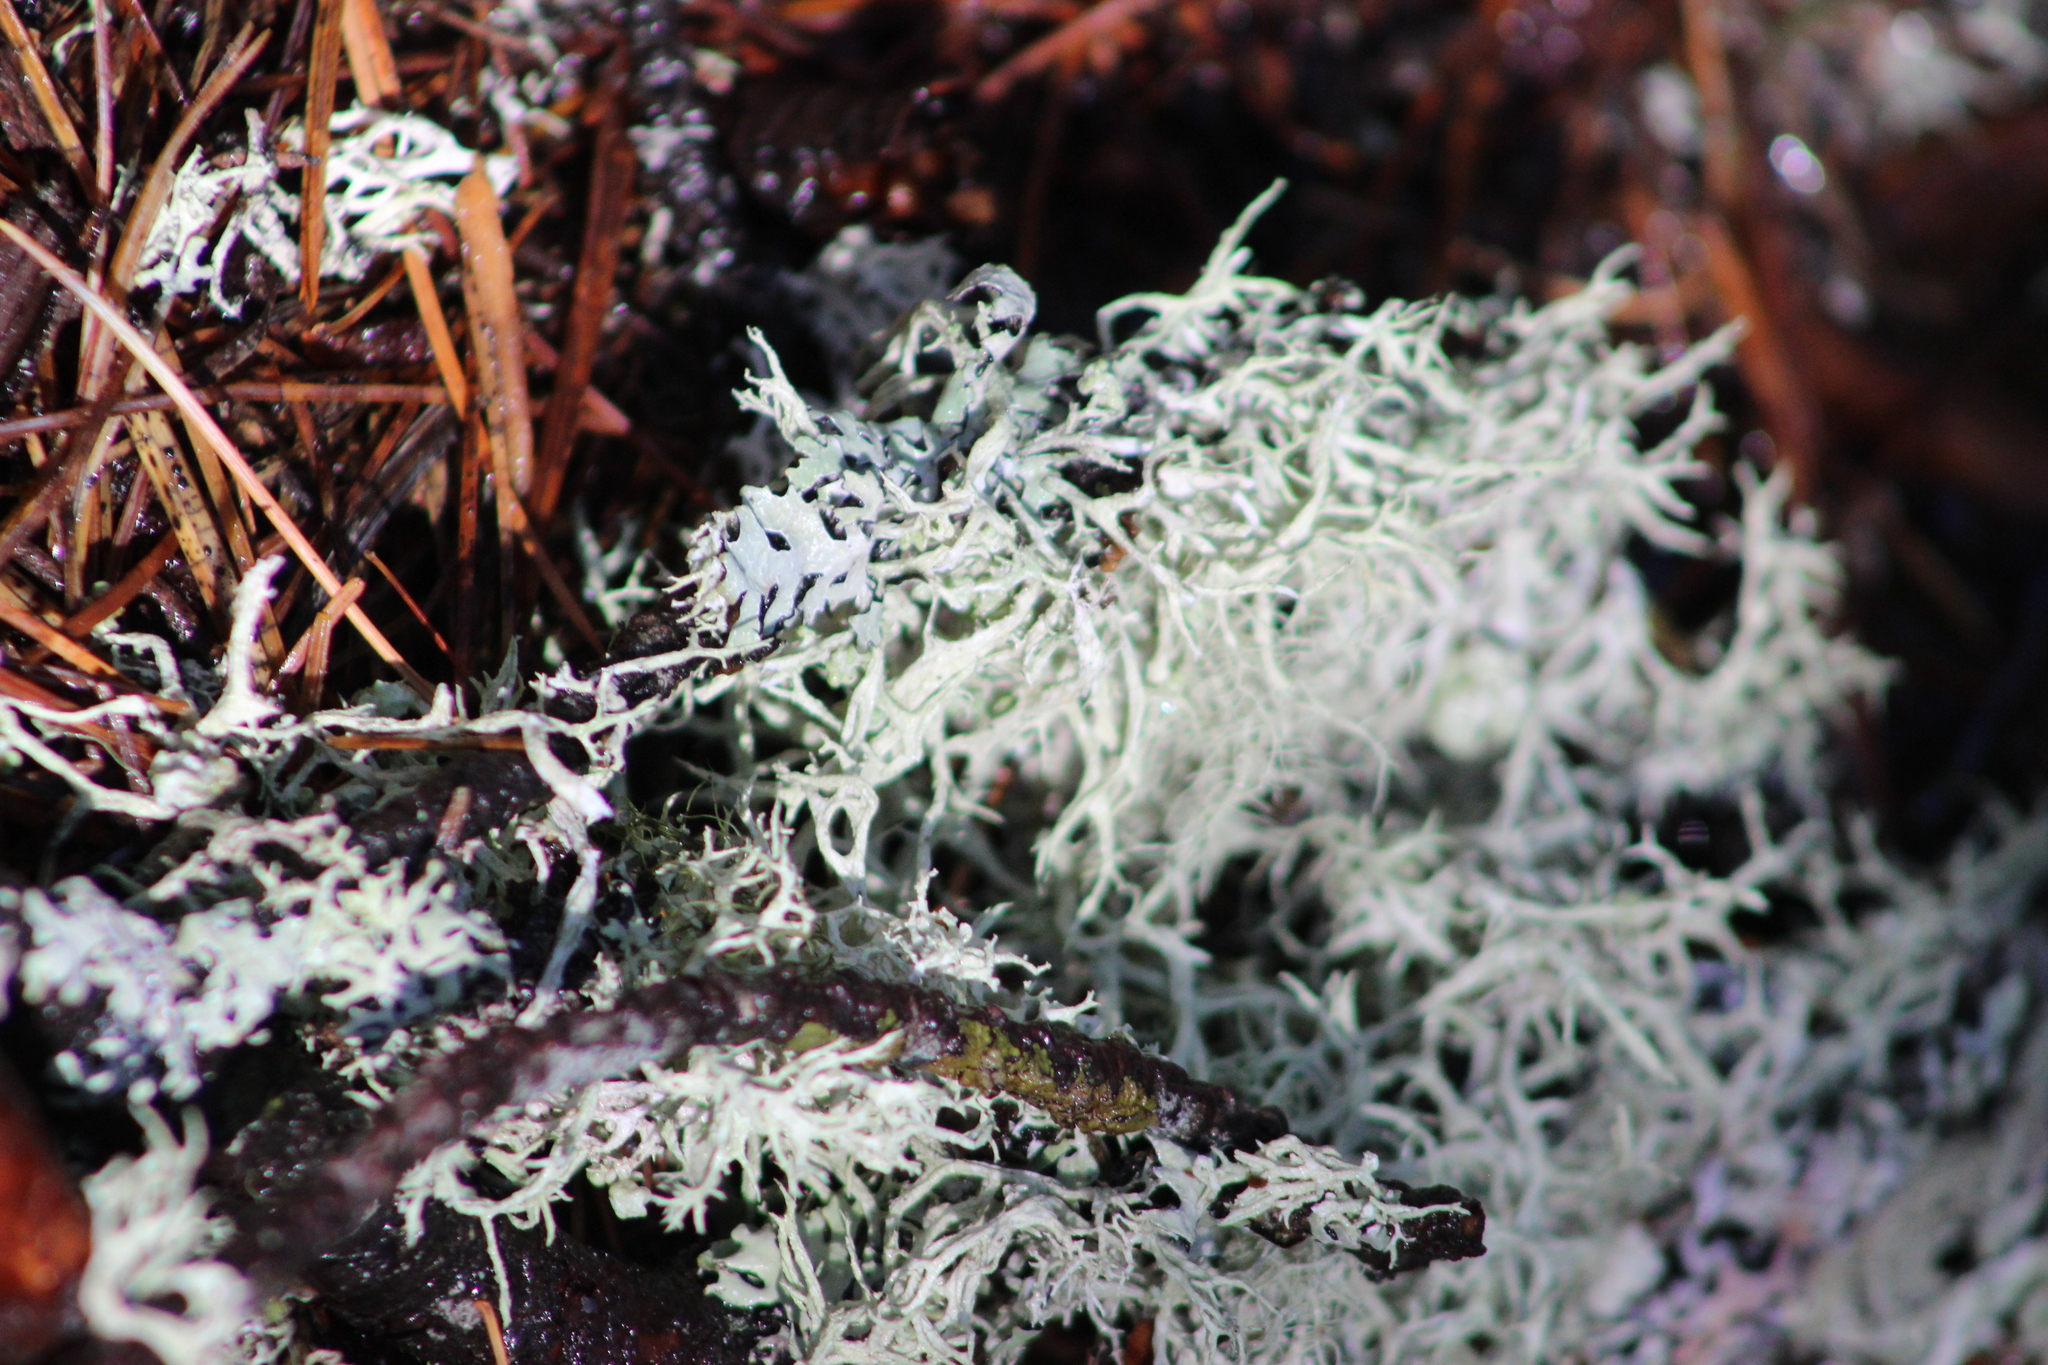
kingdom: Fungi
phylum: Ascomycota
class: Lecanoromycetes
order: Lecanorales
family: Parmeliaceae
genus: Evernia
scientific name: Evernia mesomorpha
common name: Boreal oak moss lichen
